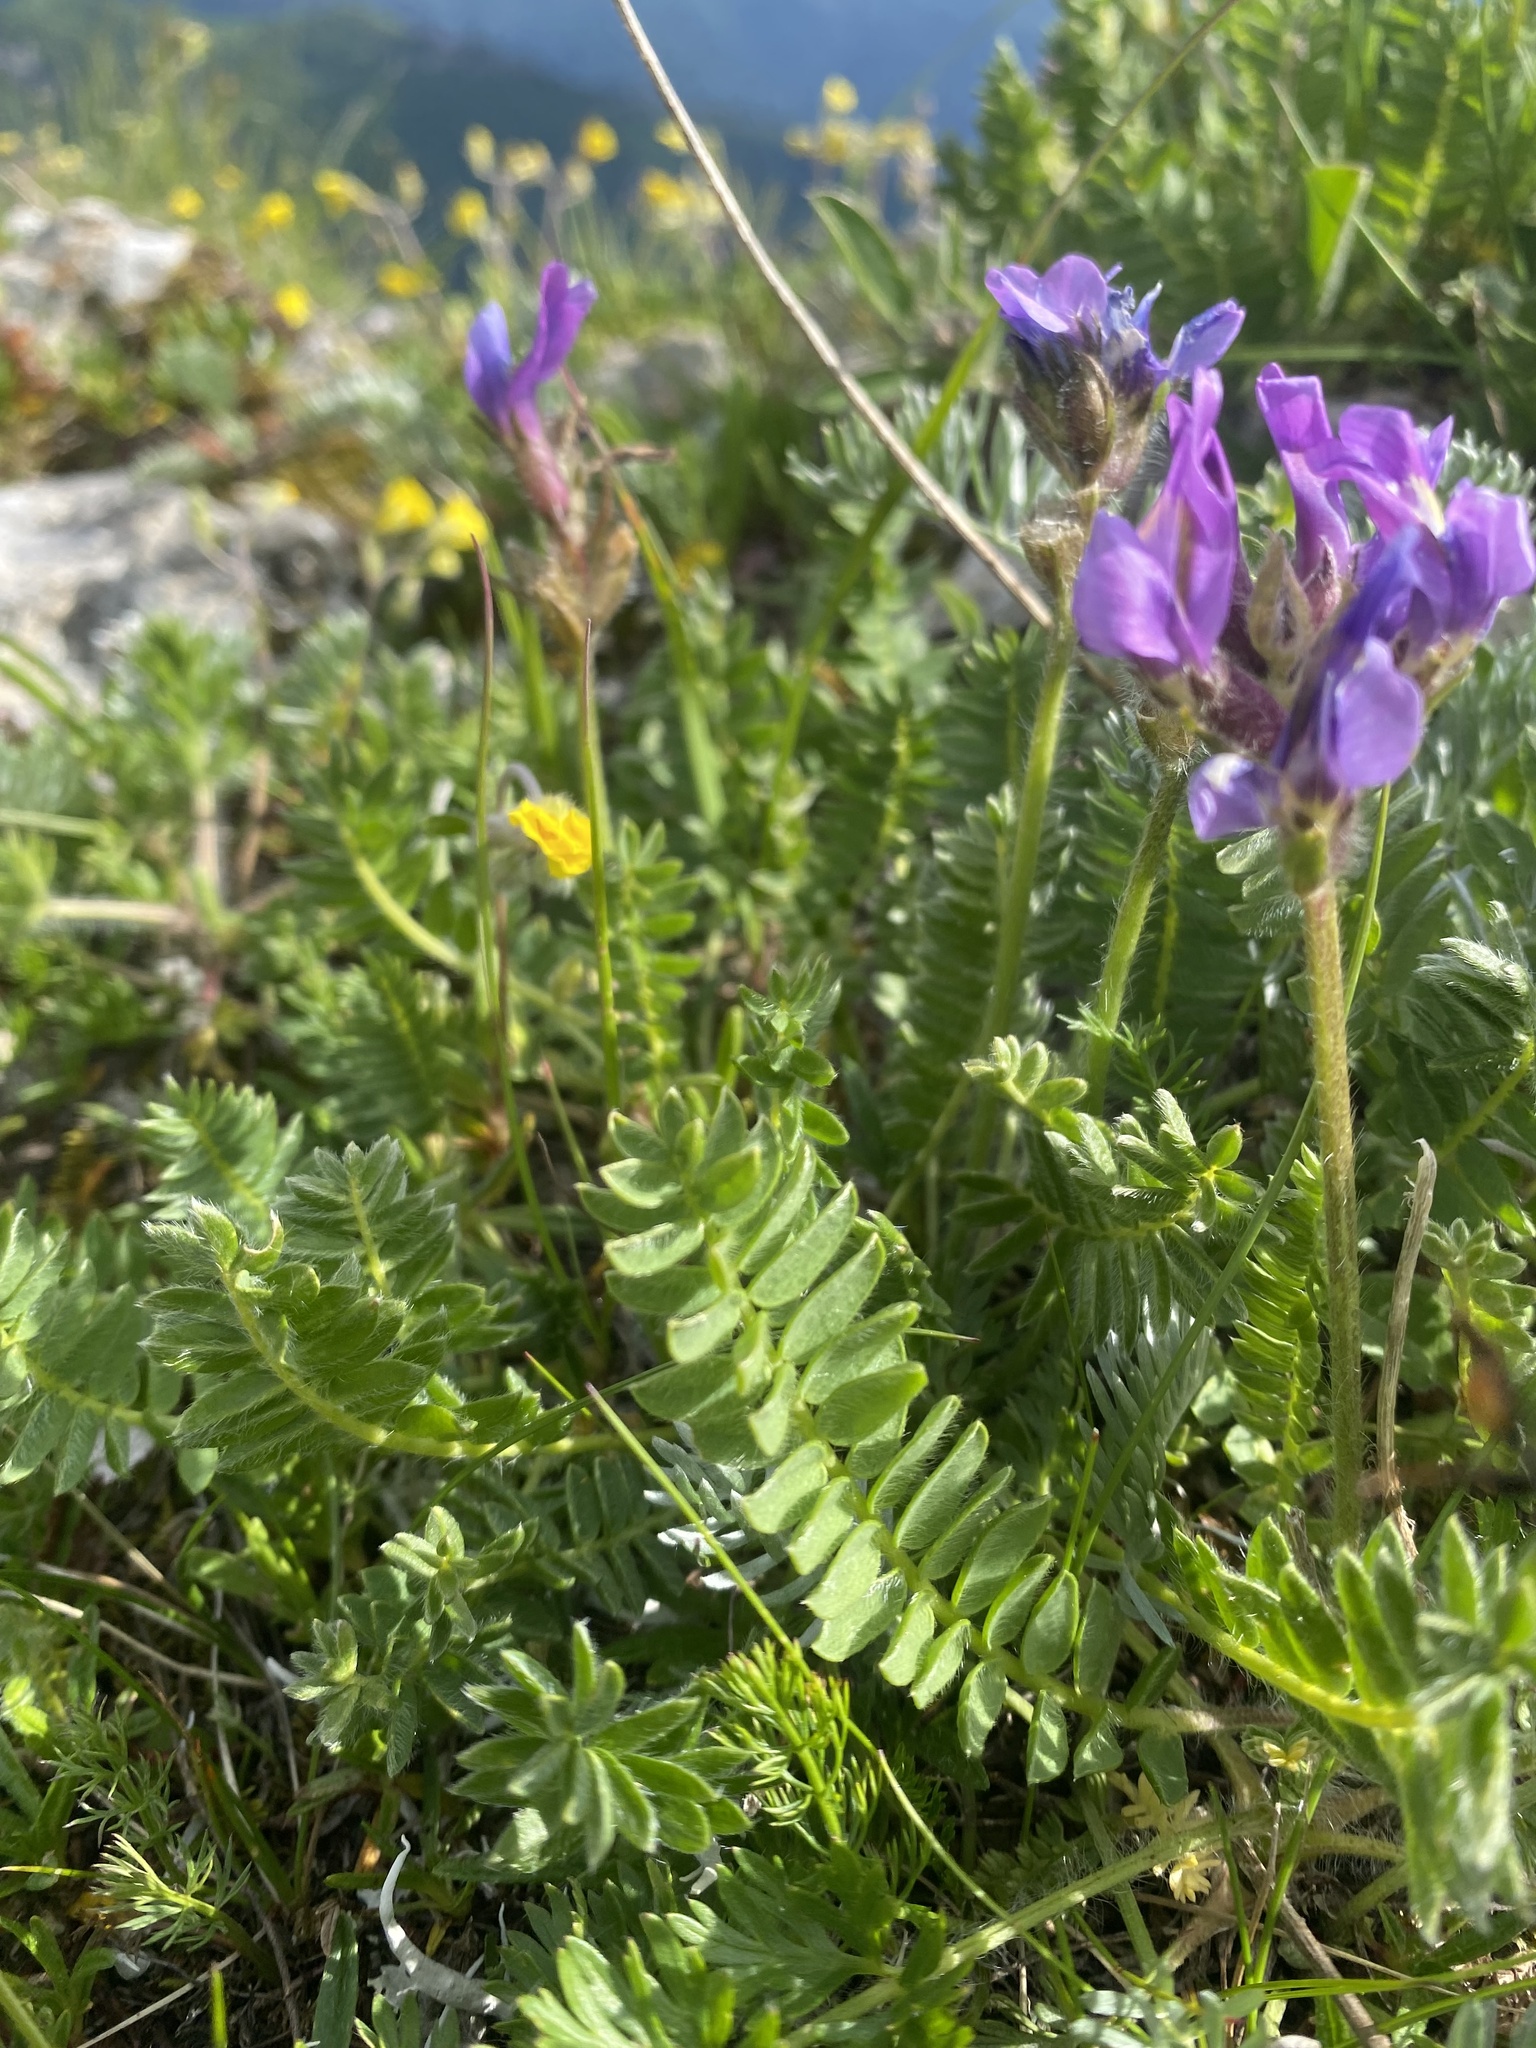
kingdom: Plantae
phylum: Tracheophyta
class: Magnoliopsida
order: Fabales
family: Fabaceae
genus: Oxytropis
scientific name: Oxytropis lazica
